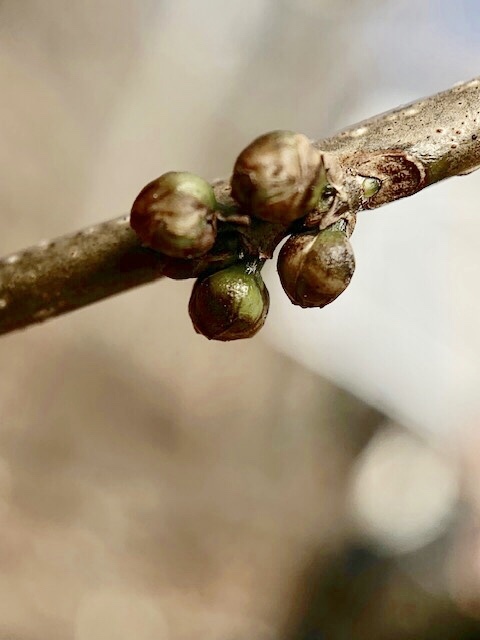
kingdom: Plantae
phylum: Tracheophyta
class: Magnoliopsida
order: Laurales
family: Lauraceae
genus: Lindera
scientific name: Lindera benzoin
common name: Spicebush
